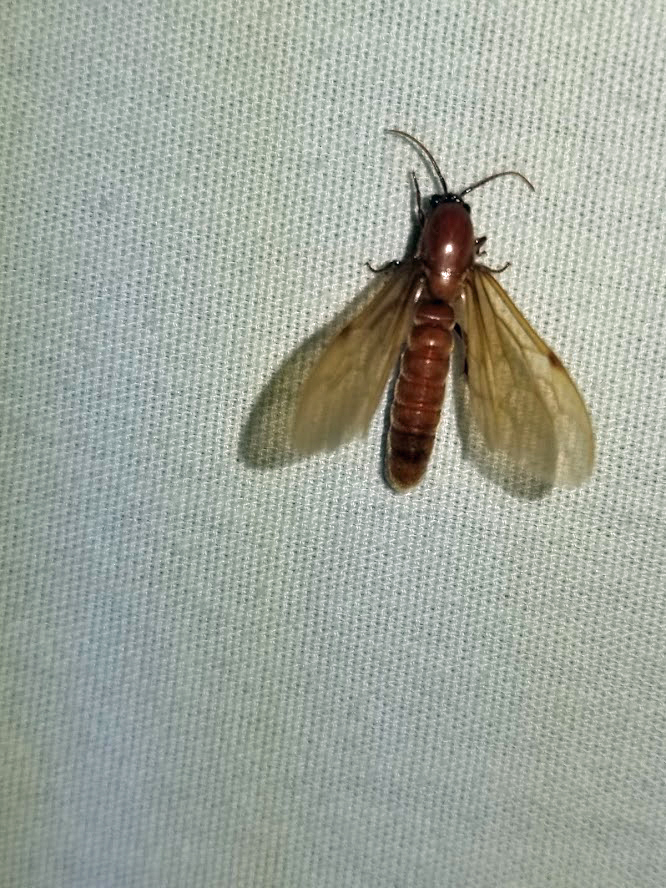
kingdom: Animalia
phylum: Arthropoda
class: Insecta
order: Hymenoptera
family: Formicidae
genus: Labidus
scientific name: Labidus coecus
